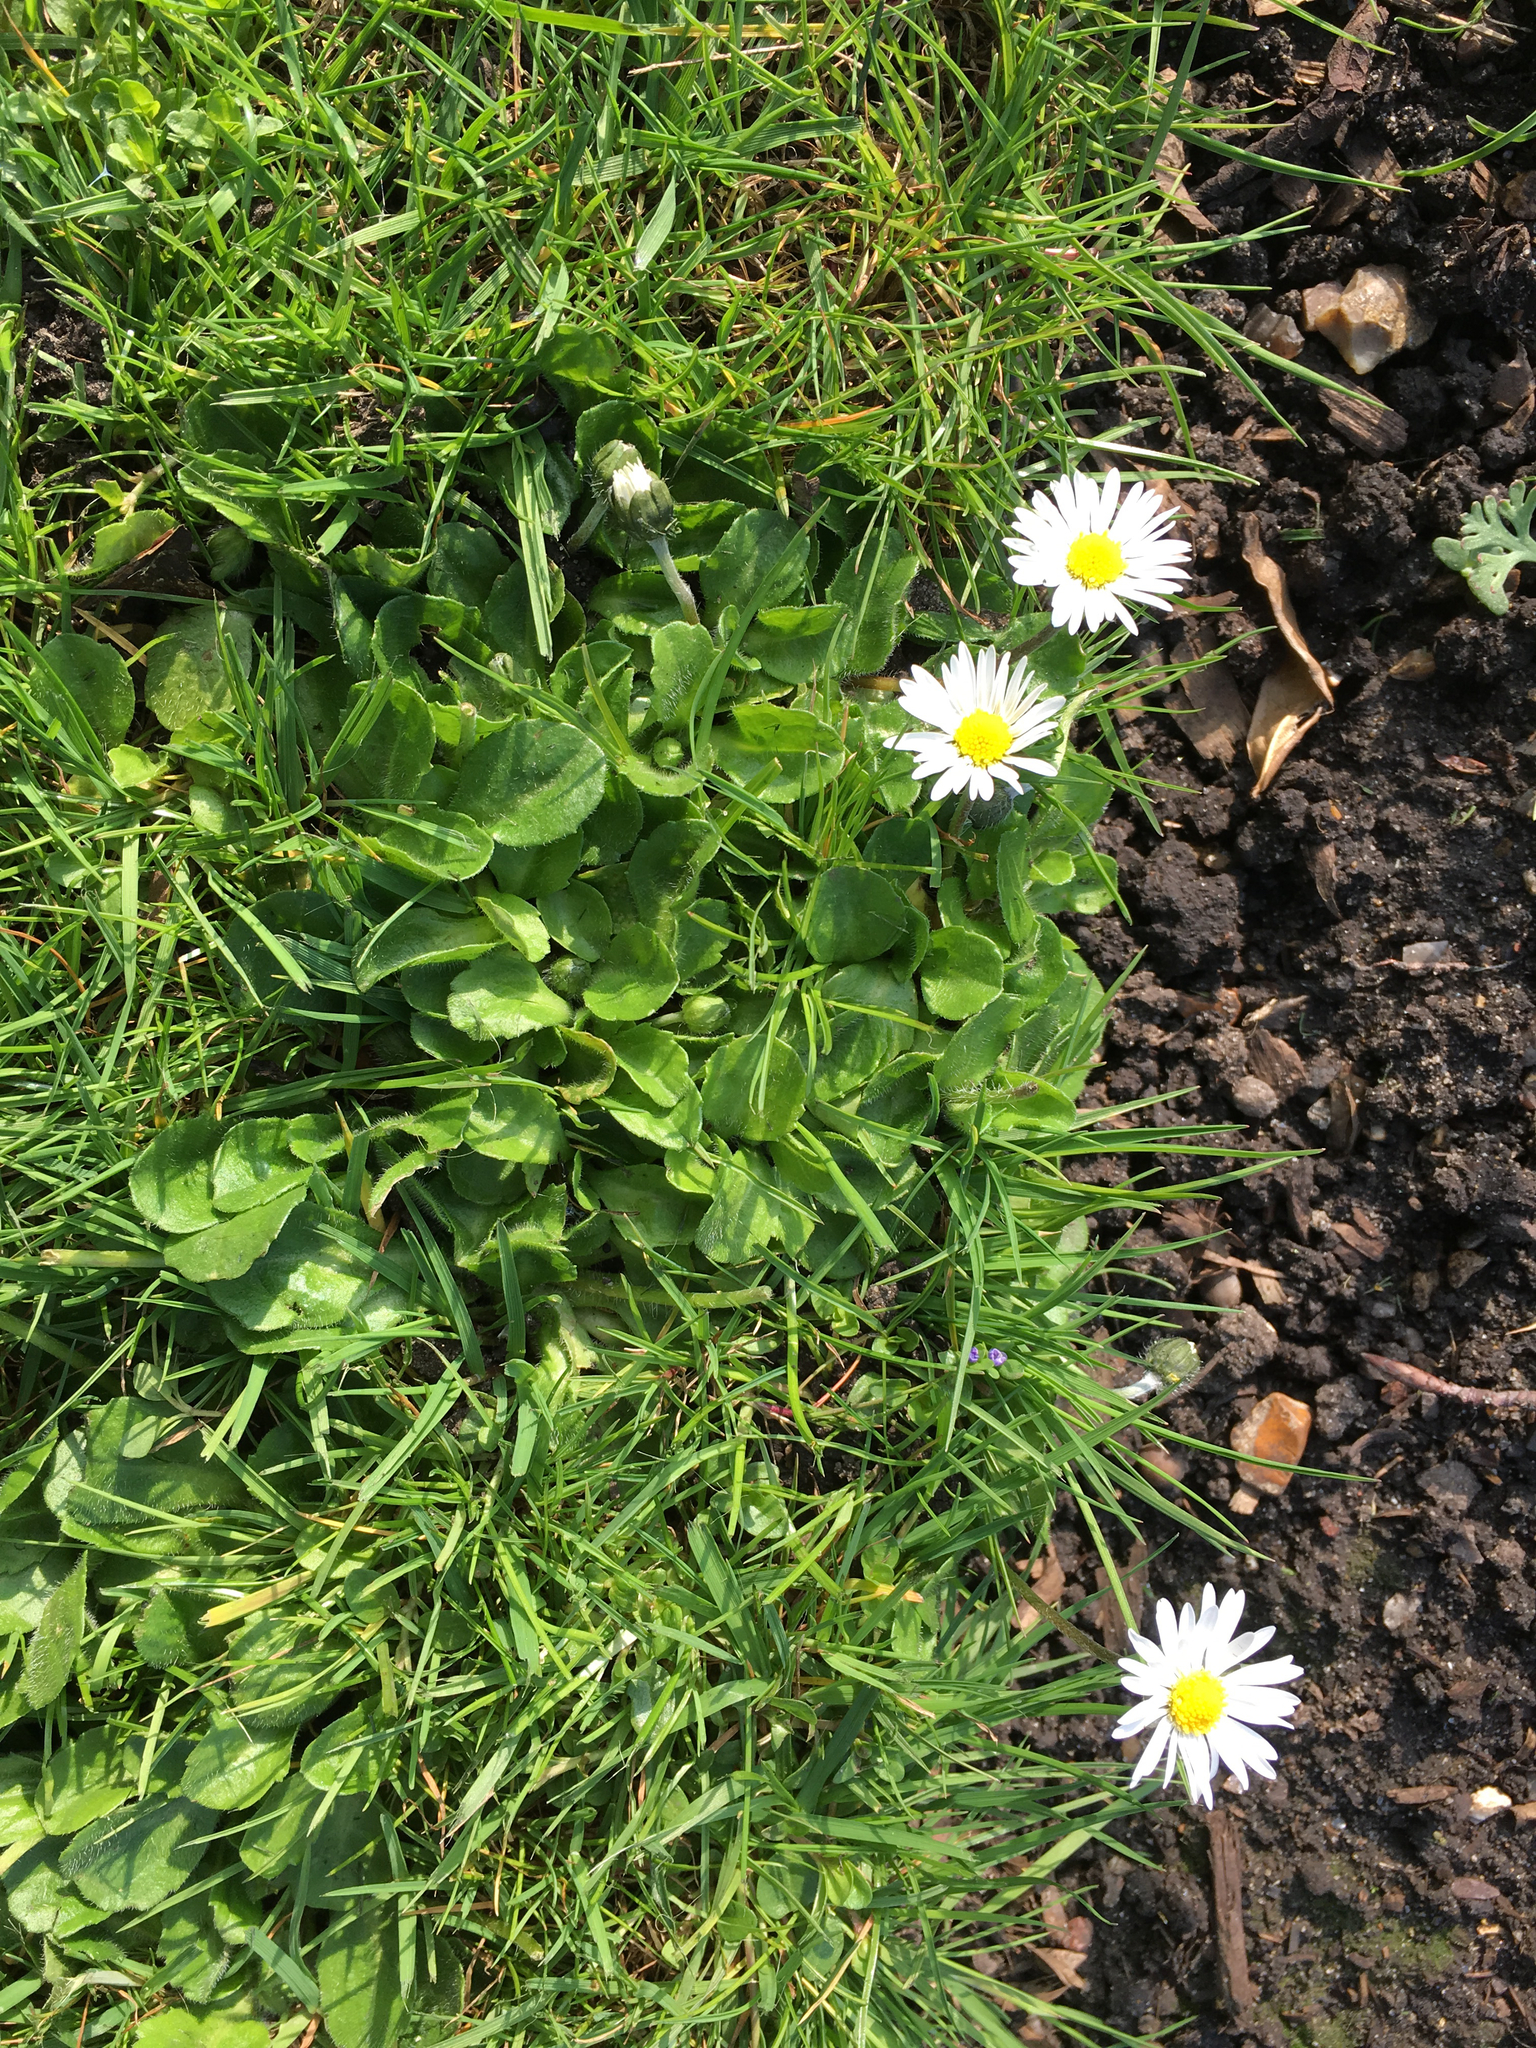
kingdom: Plantae
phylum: Tracheophyta
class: Magnoliopsida
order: Asterales
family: Asteraceae
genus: Bellis
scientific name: Bellis perennis
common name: Lawndaisy
